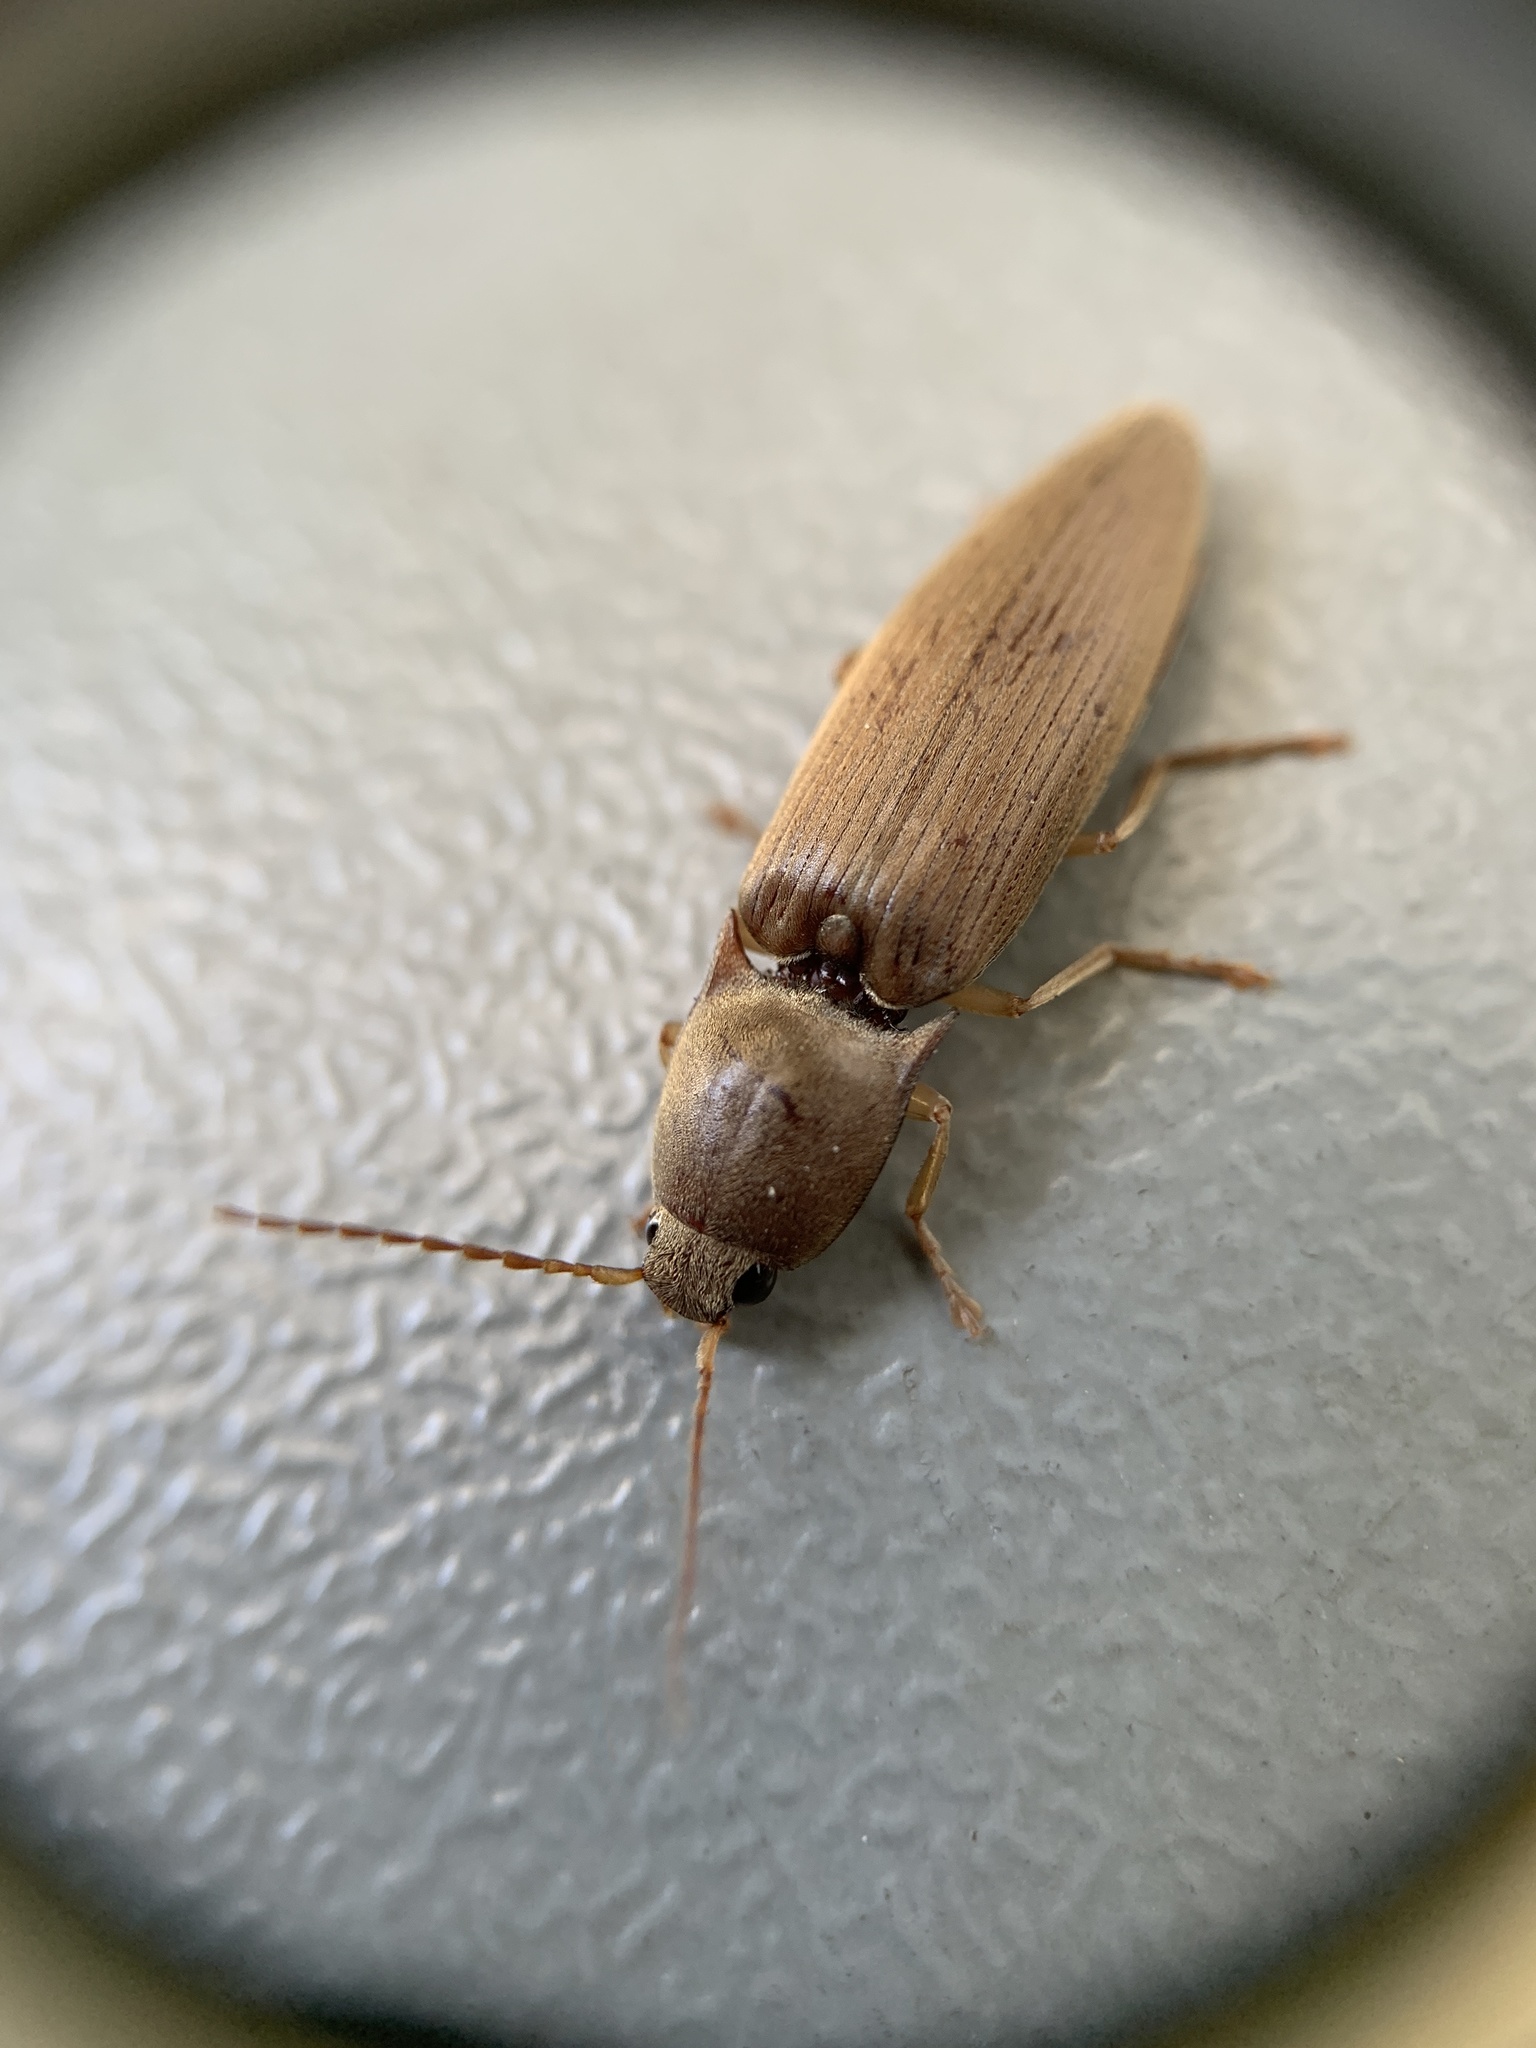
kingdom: Animalia
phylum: Arthropoda
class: Insecta
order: Coleoptera
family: Elateridae
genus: Monocrepidius
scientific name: Monocrepidius lividus
